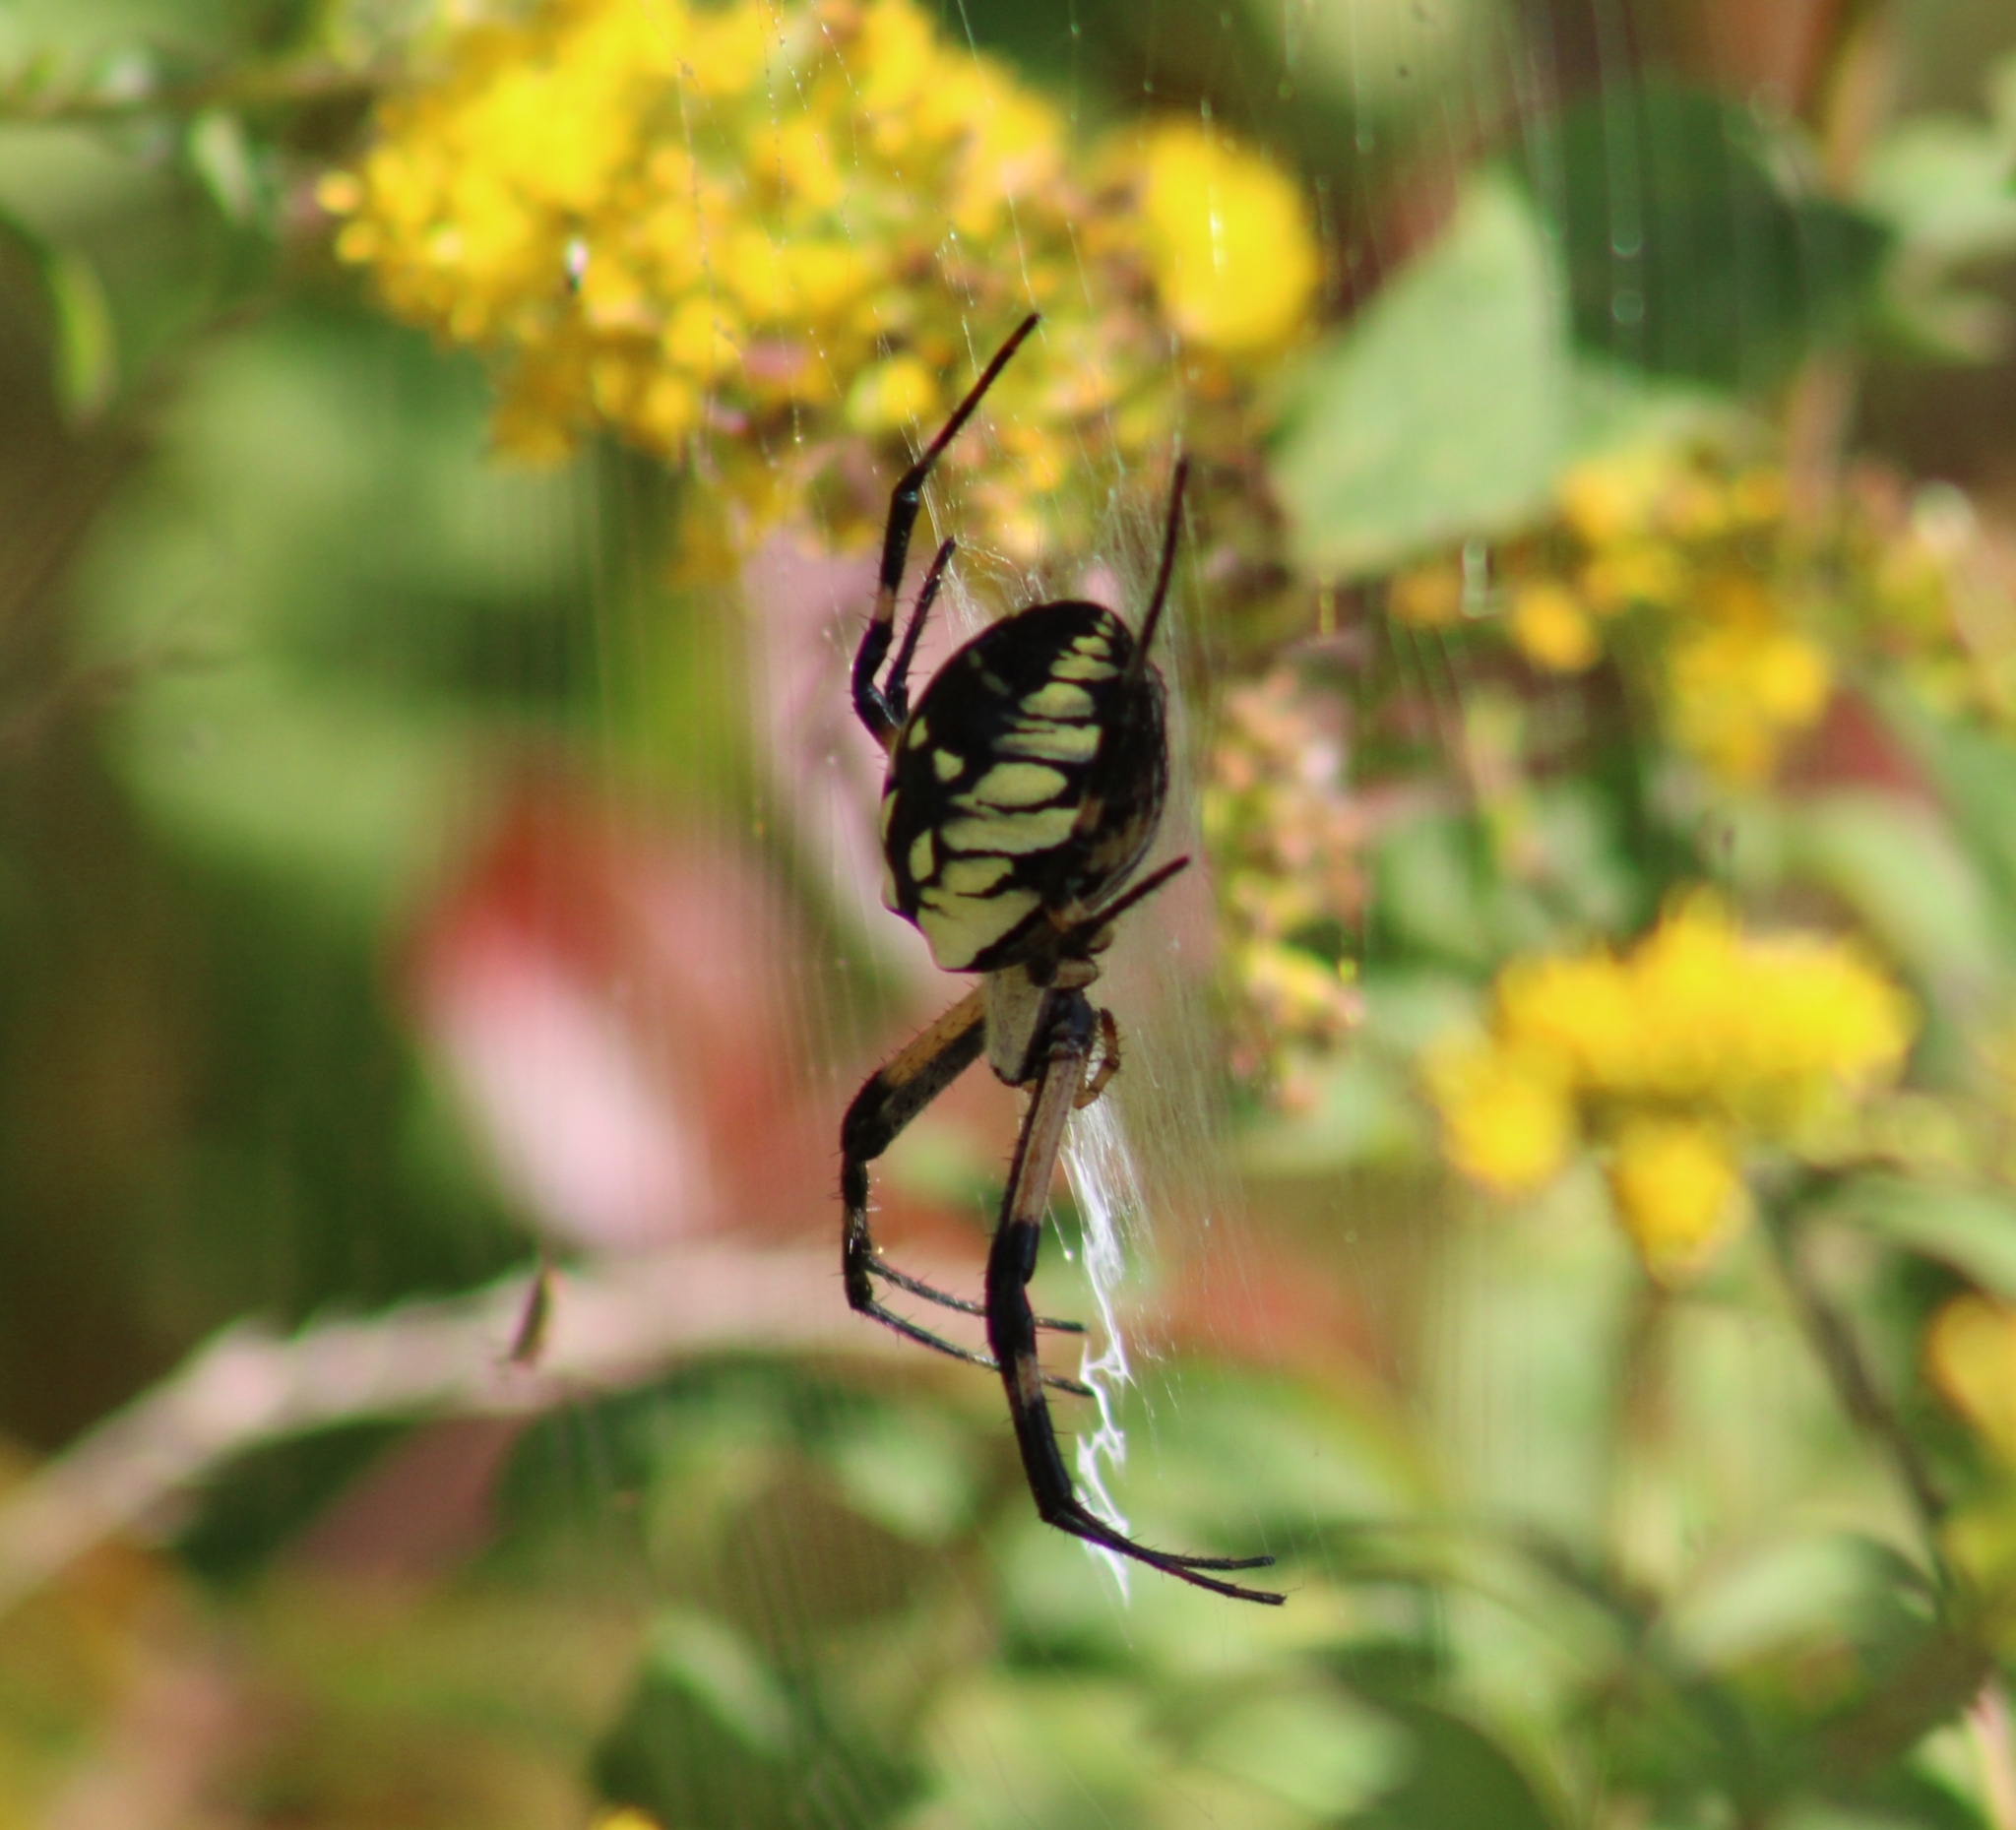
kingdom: Animalia
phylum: Arthropoda
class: Arachnida
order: Araneae
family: Araneidae
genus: Argiope
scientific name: Argiope aurantia
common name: Orb weavers
